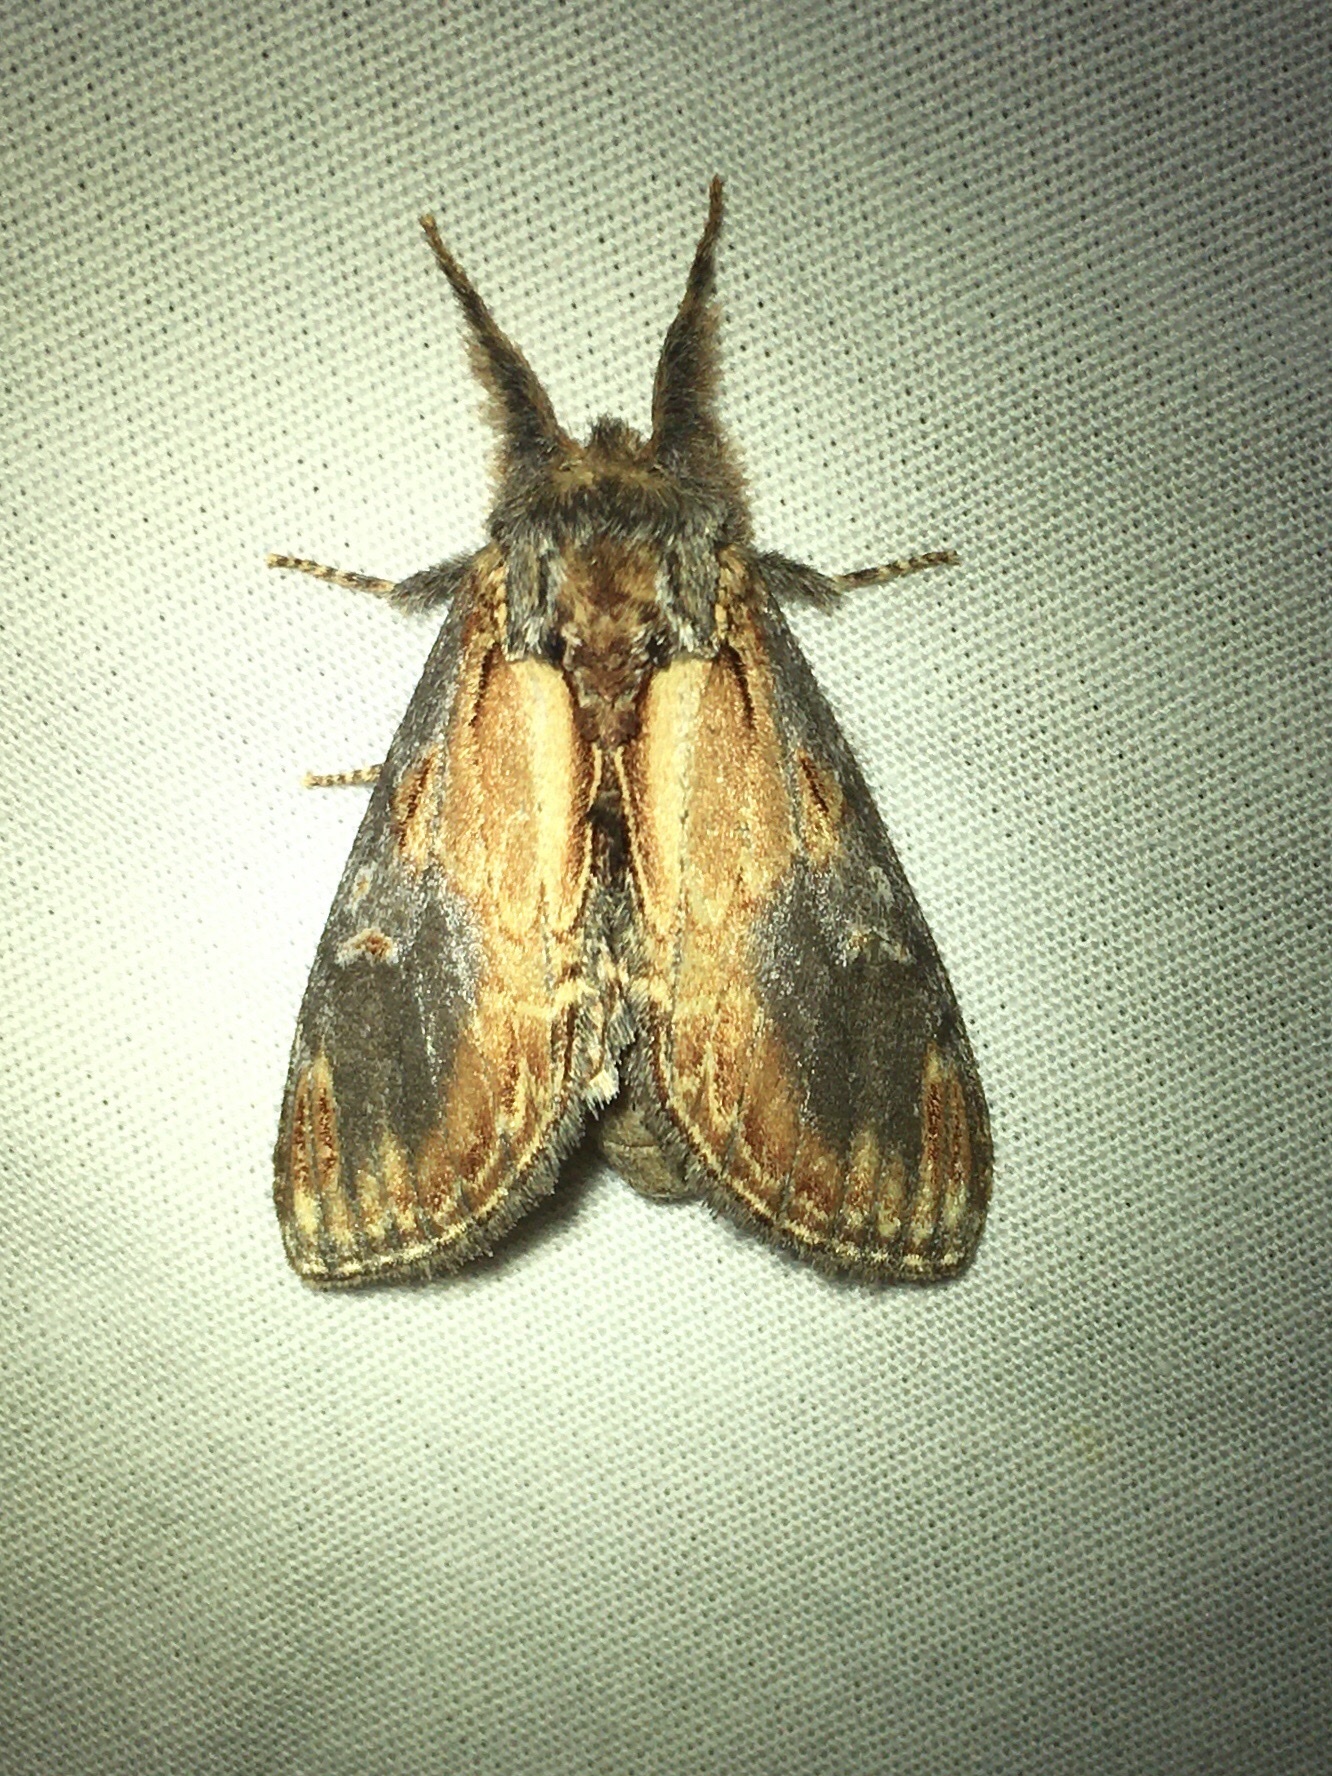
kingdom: Animalia
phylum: Arthropoda
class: Insecta
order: Lepidoptera
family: Notodontidae
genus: Notodonta
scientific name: Notodonta scitipennis
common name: Finned-willow prominent moth
